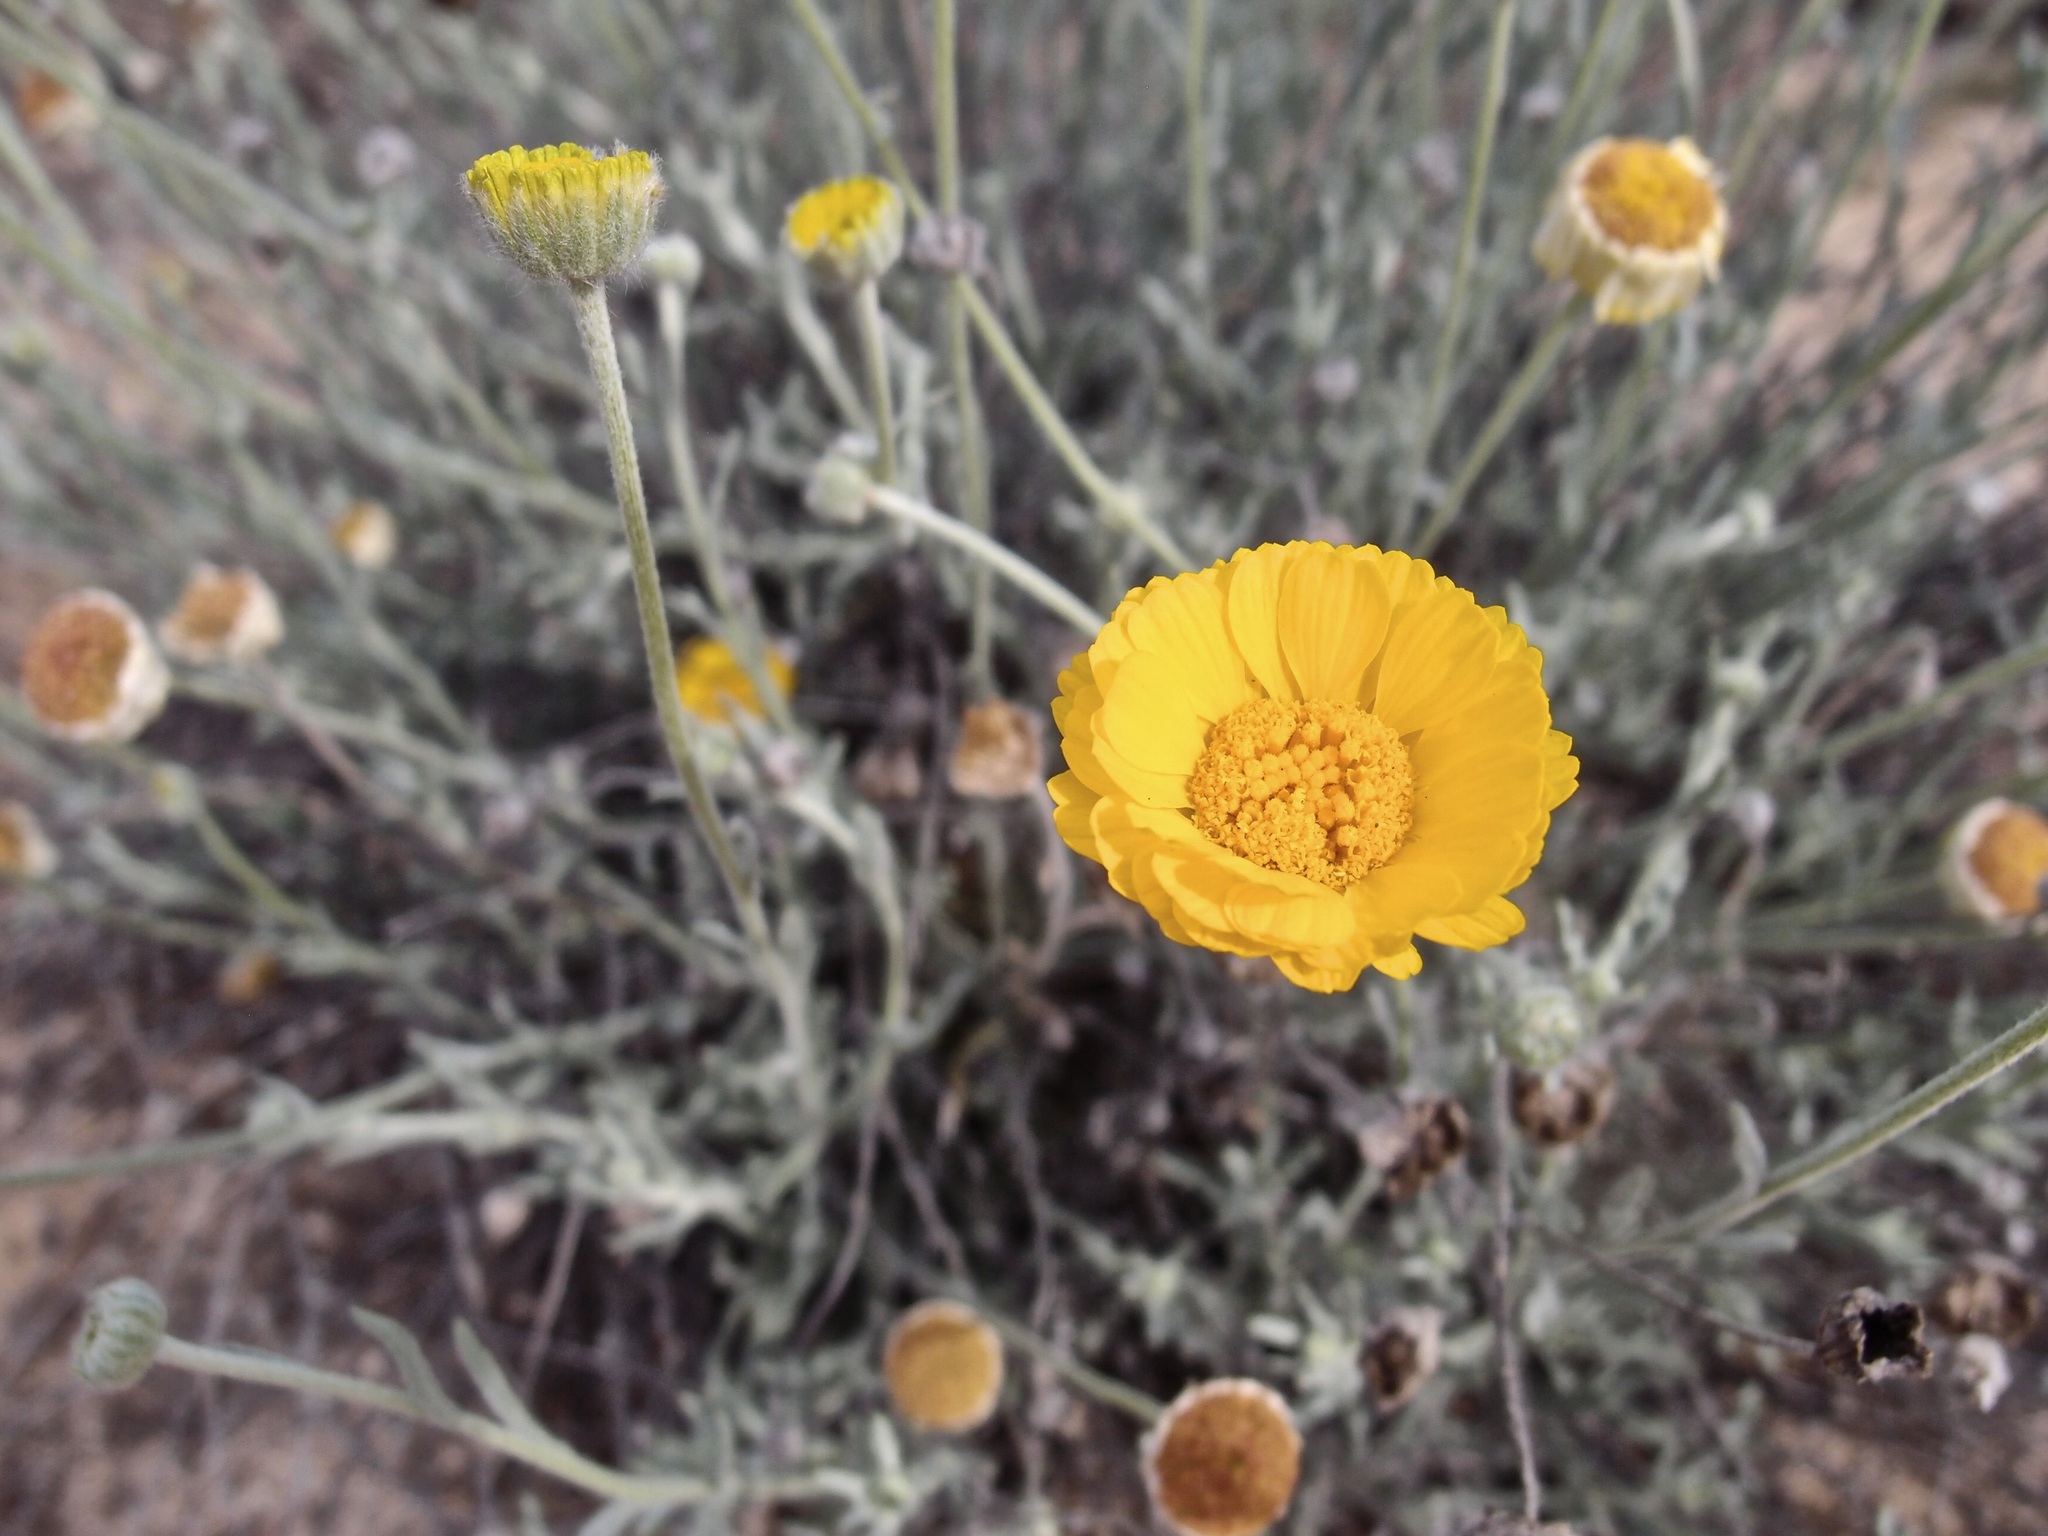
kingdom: Plantae
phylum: Tracheophyta
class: Magnoliopsida
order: Asterales
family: Asteraceae
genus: Baileya
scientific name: Baileya multiradiata
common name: Desert-marigold
